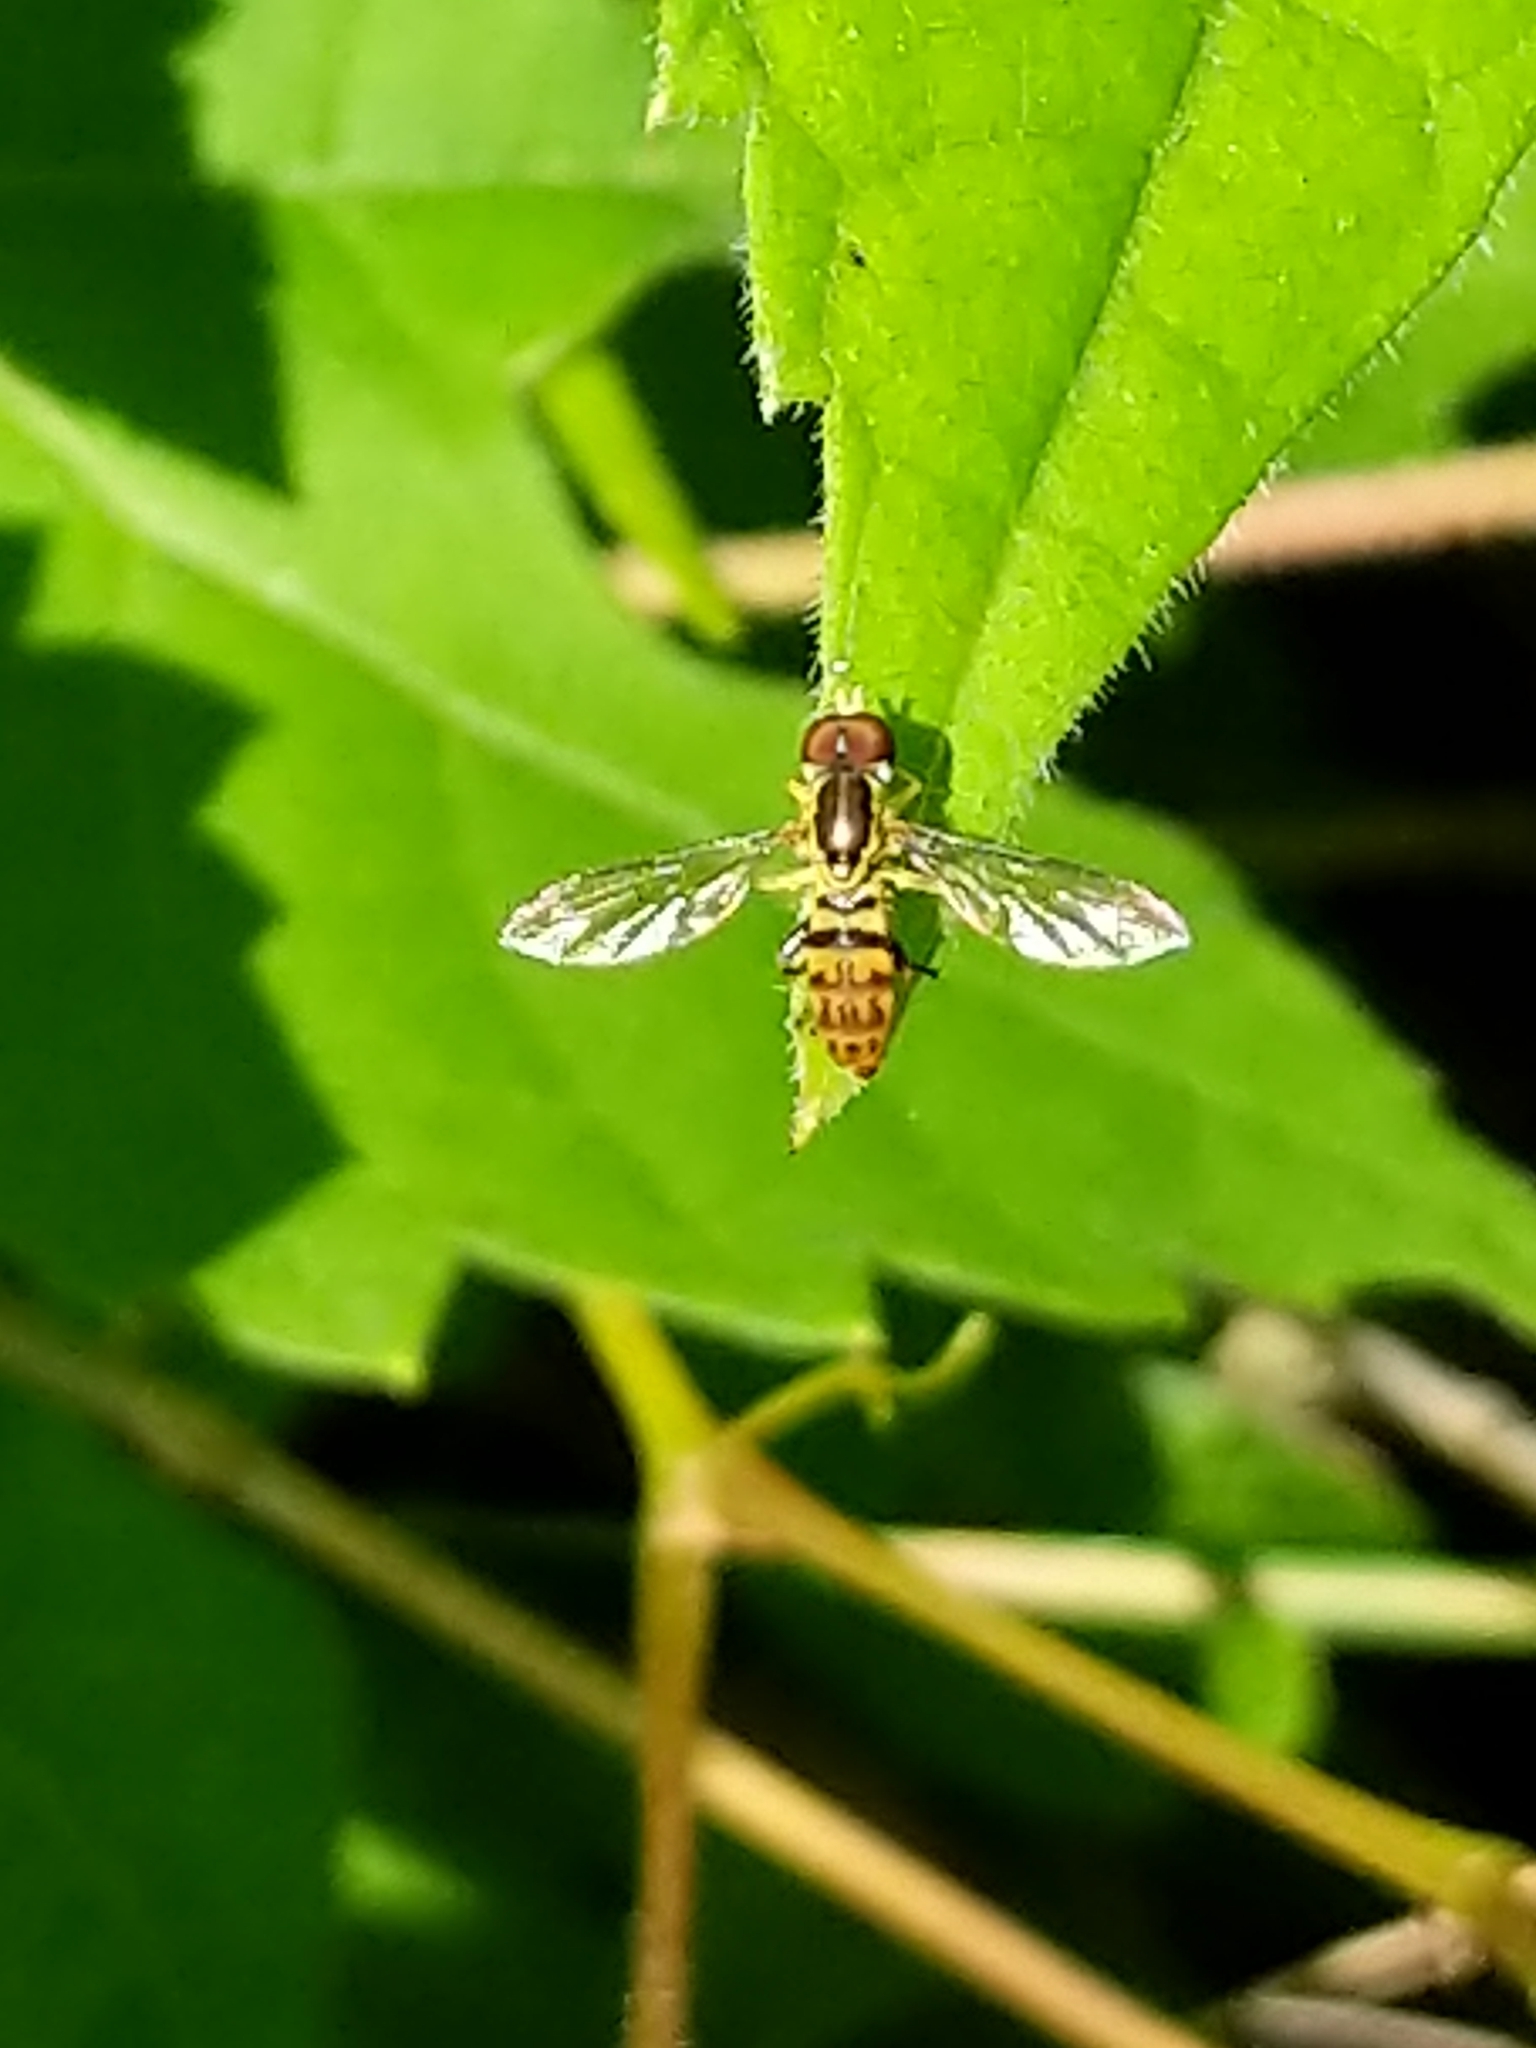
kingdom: Animalia
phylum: Arthropoda
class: Insecta
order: Diptera
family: Syrphidae
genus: Toxomerus
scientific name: Toxomerus geminatus
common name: Eastern calligrapher
